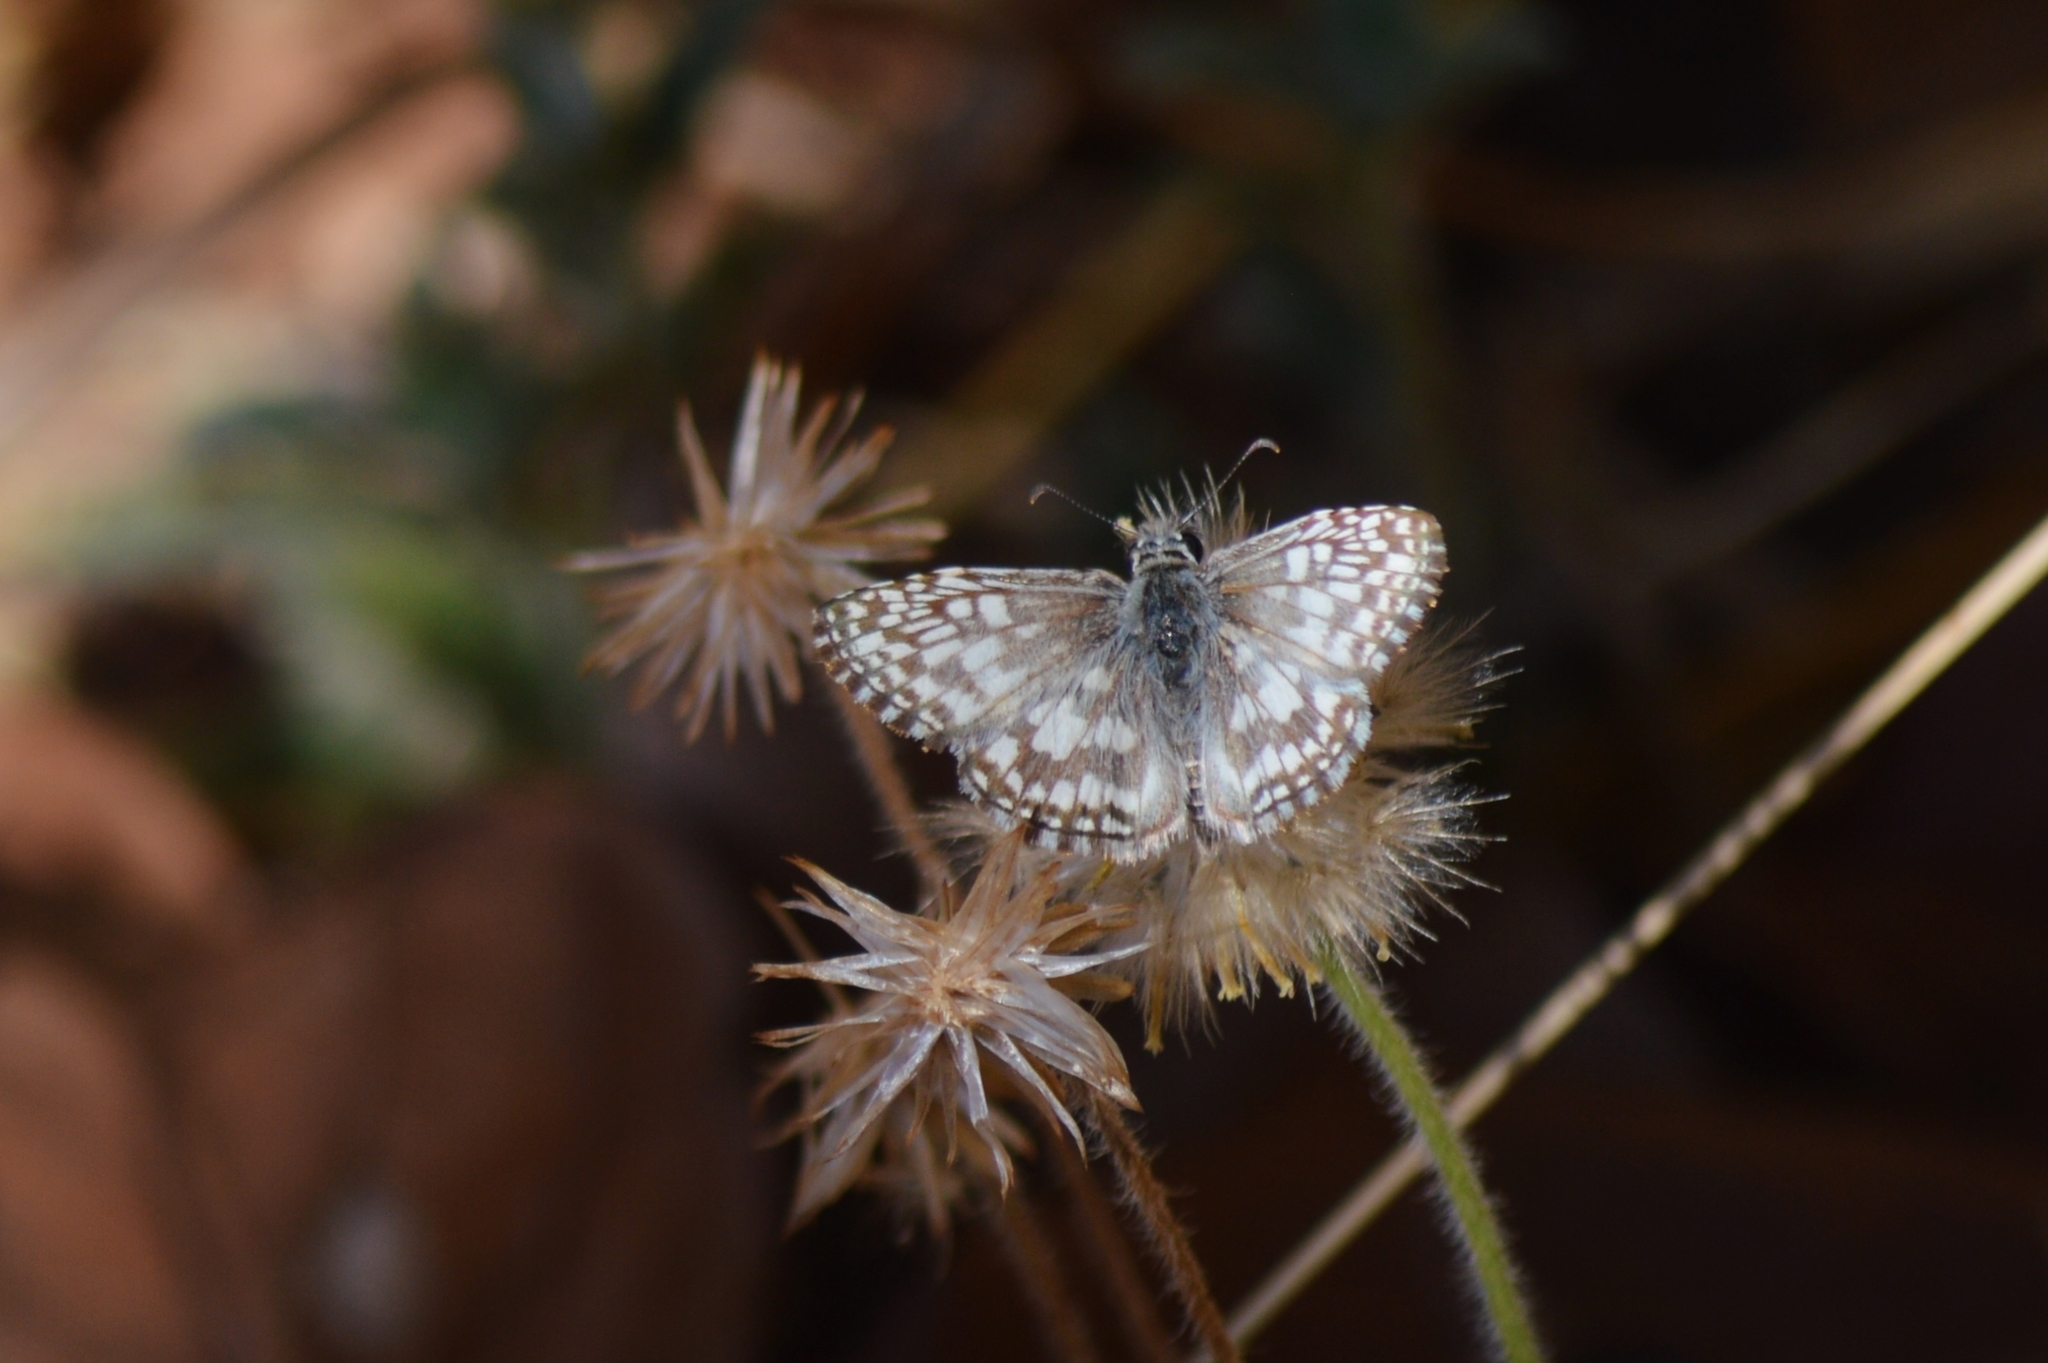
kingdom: Animalia
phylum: Arthropoda
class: Insecta
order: Lepidoptera
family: Hesperiidae
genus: Pyrgus
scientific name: Pyrgus oileus
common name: Tropical checkered-skipper
